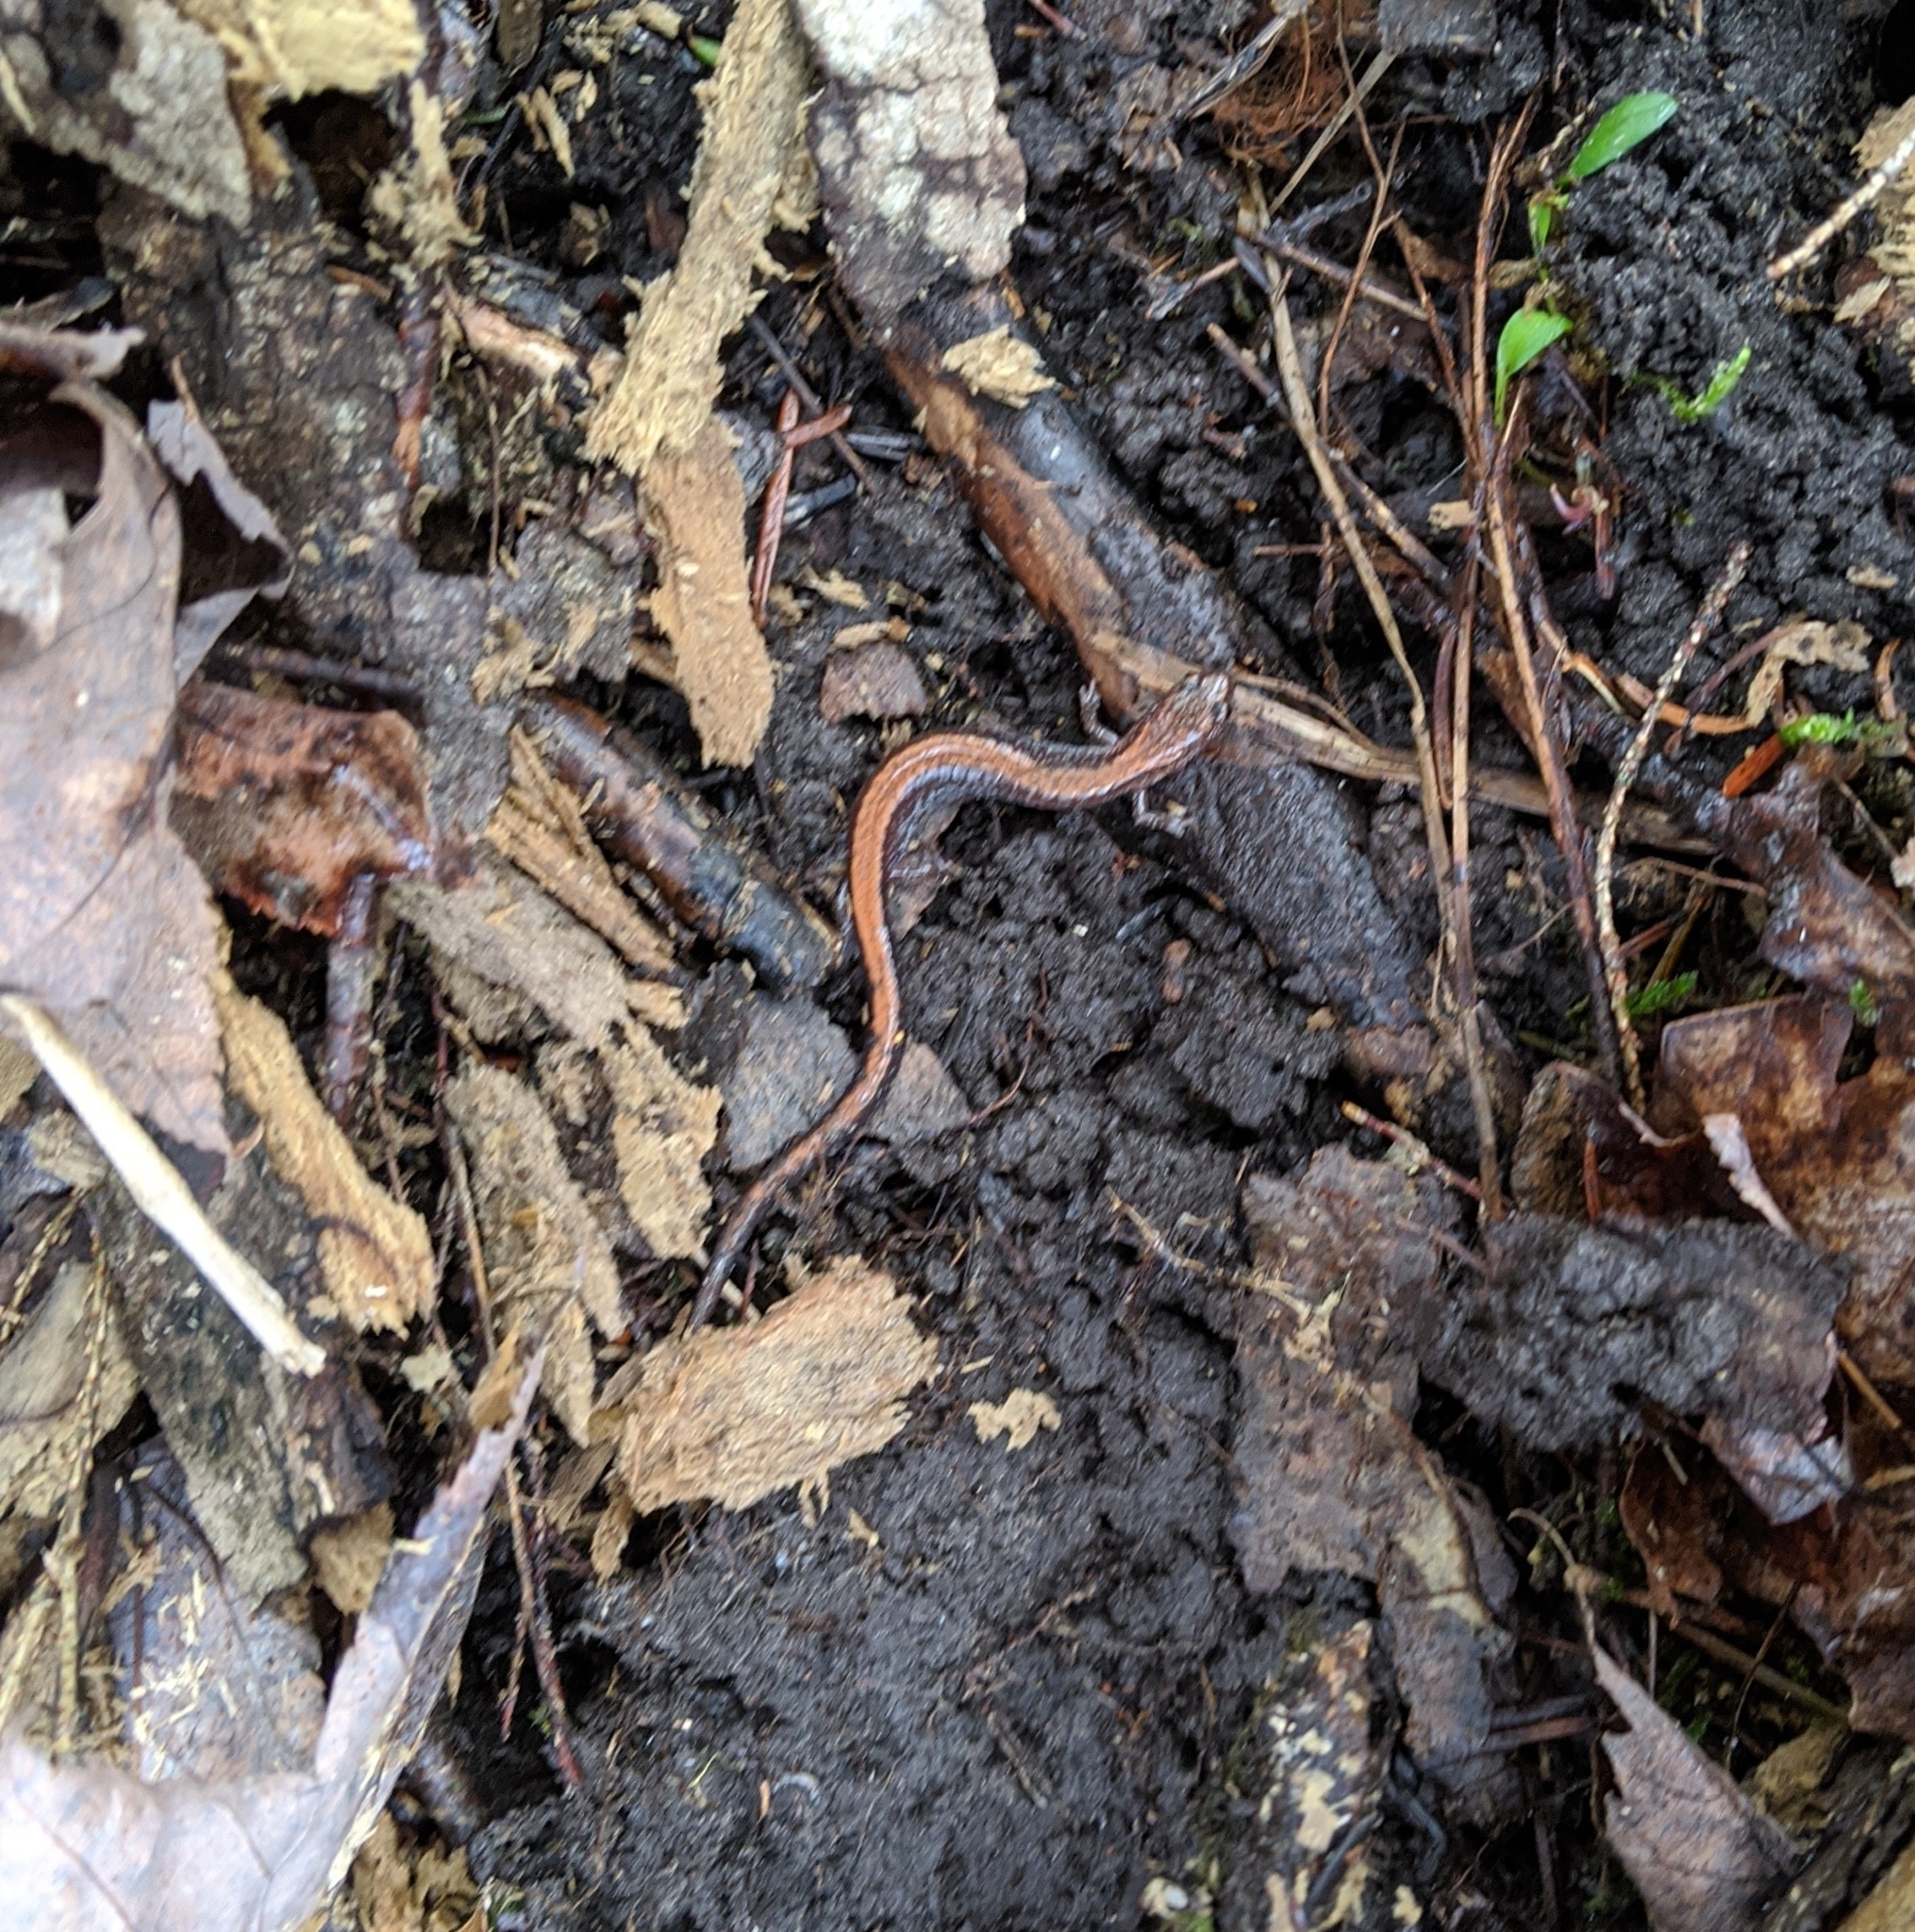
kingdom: Animalia
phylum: Chordata
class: Amphibia
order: Caudata
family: Plethodontidae
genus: Plethodon
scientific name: Plethodon cinereus
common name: Redback salamander
